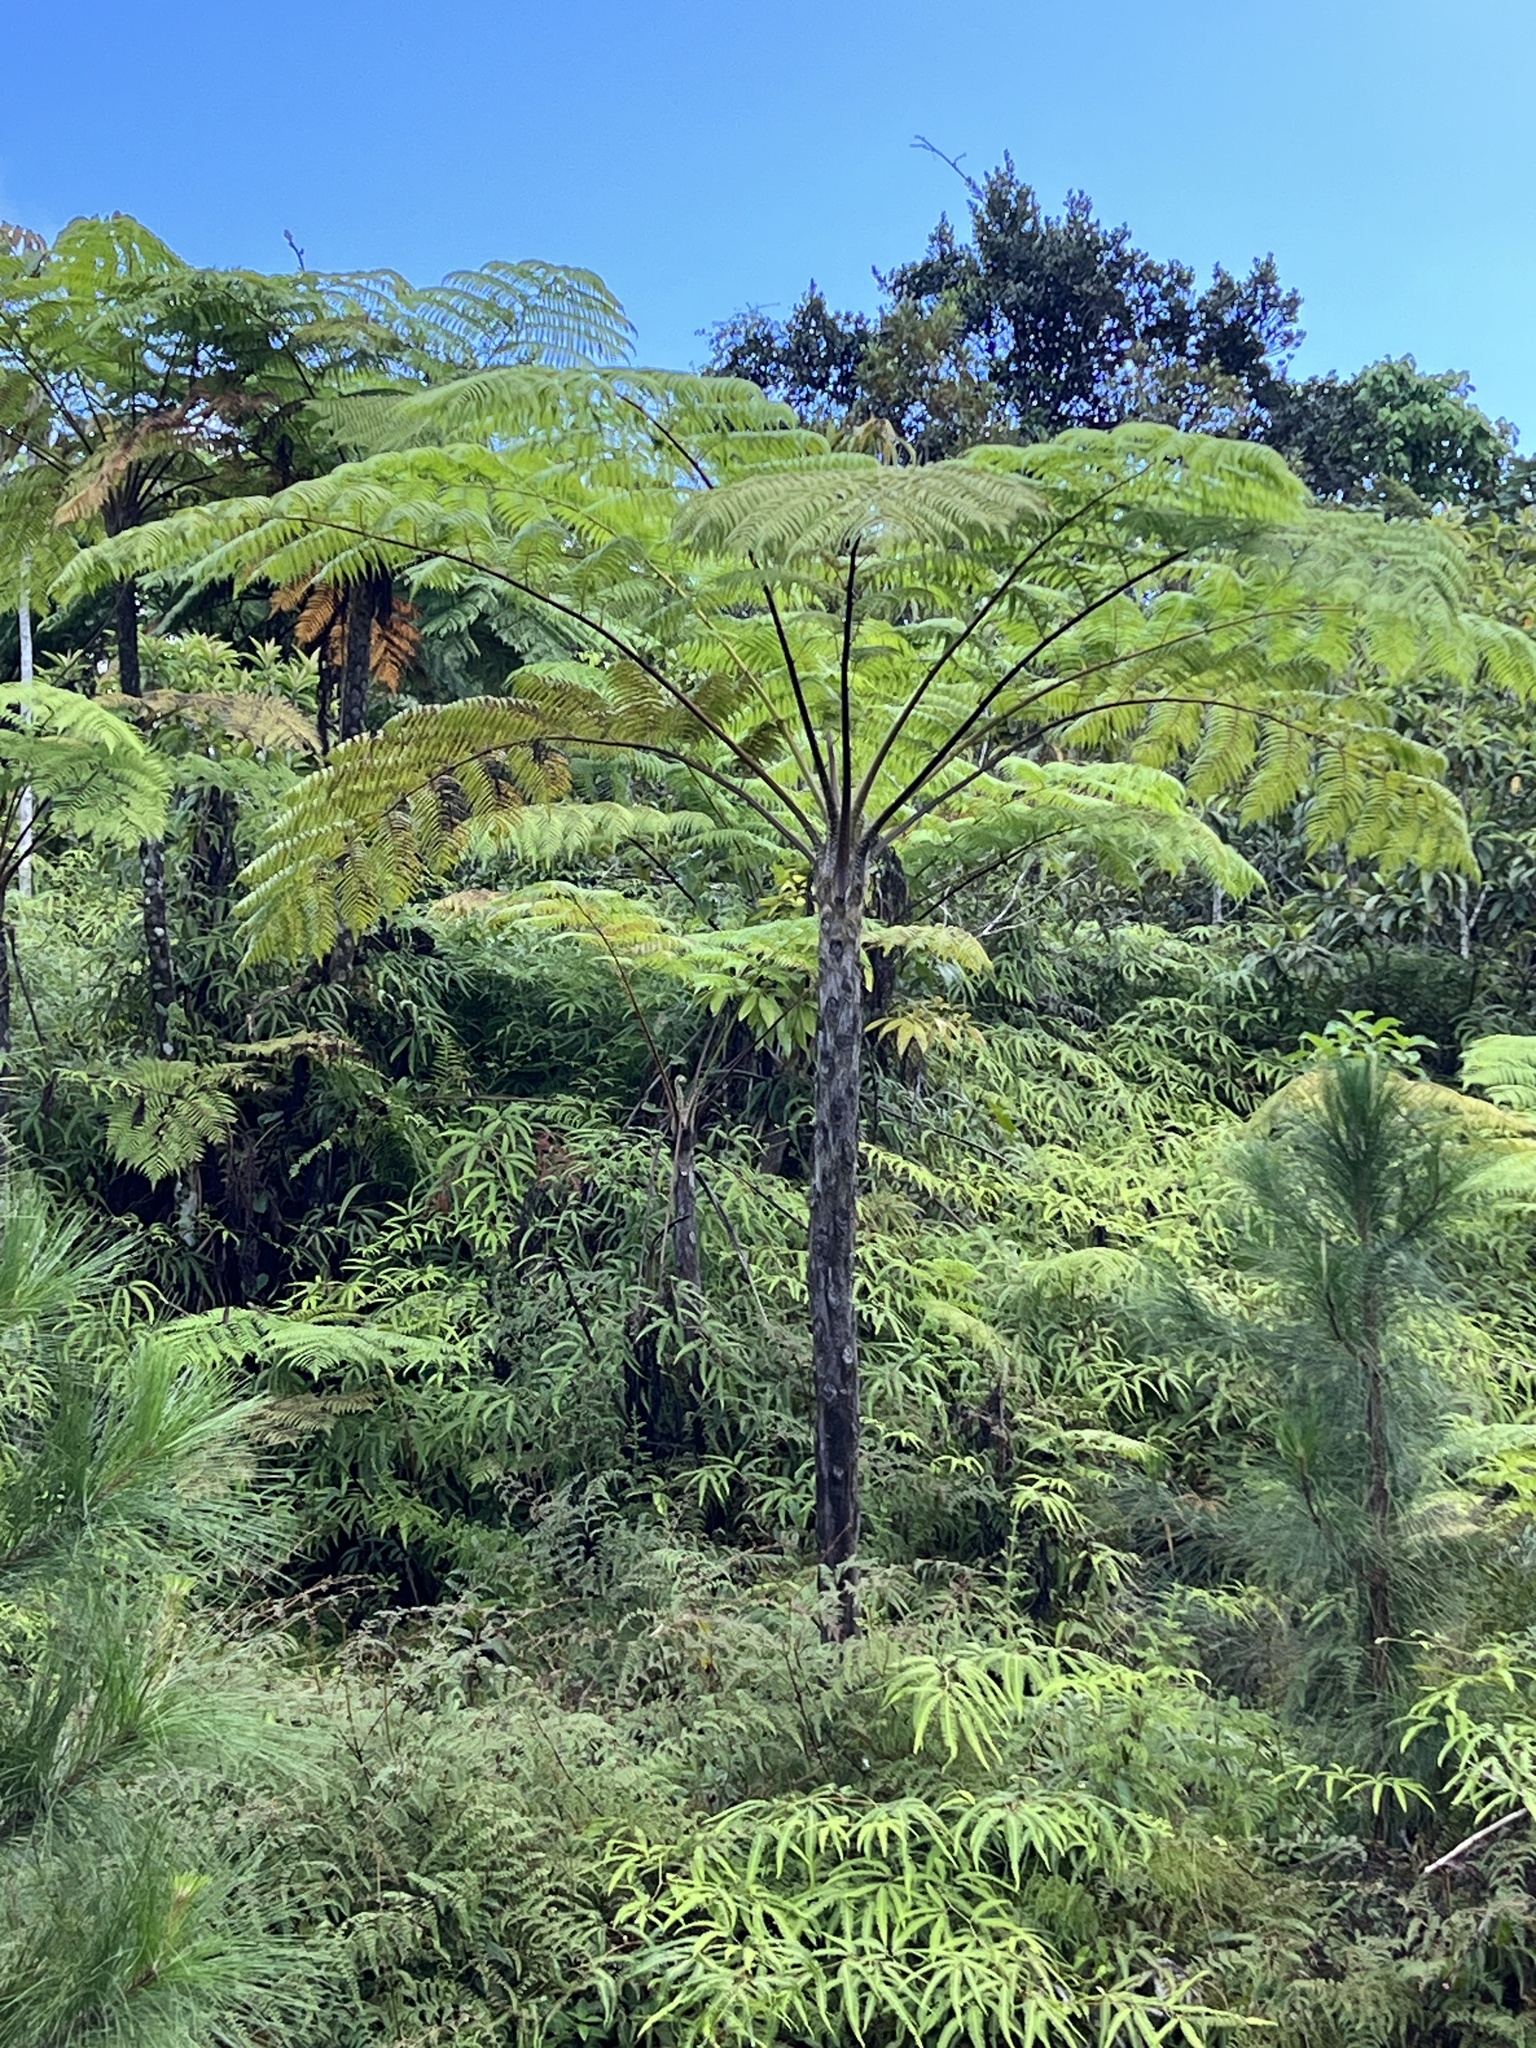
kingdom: Plantae
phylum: Tracheophyta
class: Polypodiopsida
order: Cyatheales
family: Cyatheaceae
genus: Cyathea
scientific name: Cyathea arborea
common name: West indian treefern
